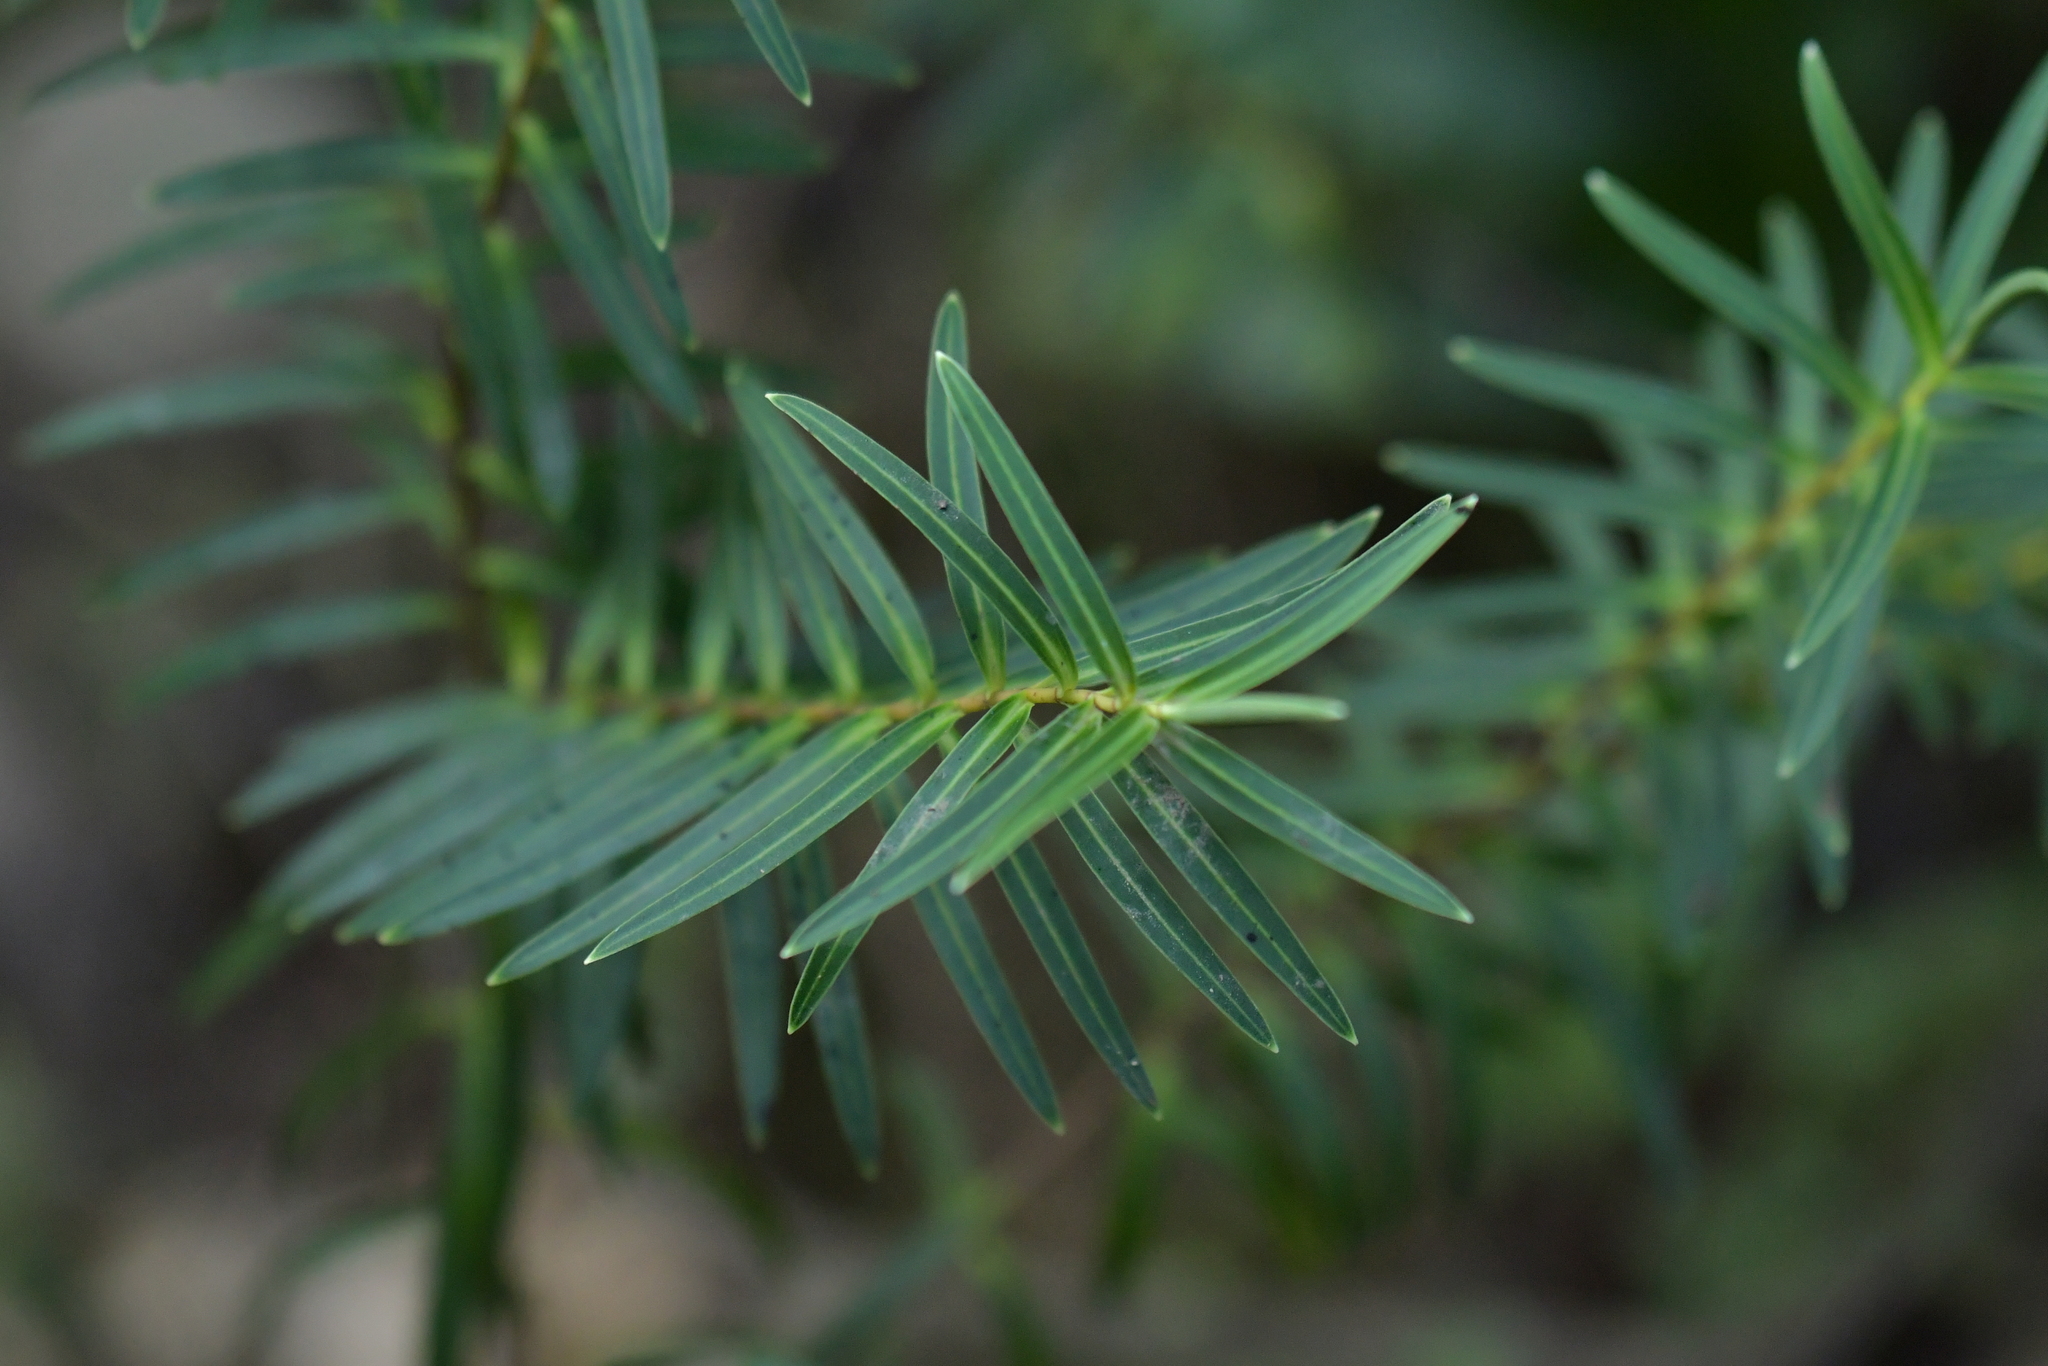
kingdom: Plantae
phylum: Tracheophyta
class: Magnoliopsida
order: Lamiales
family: Plantaginaceae
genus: Veronica
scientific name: Veronica parviflora
